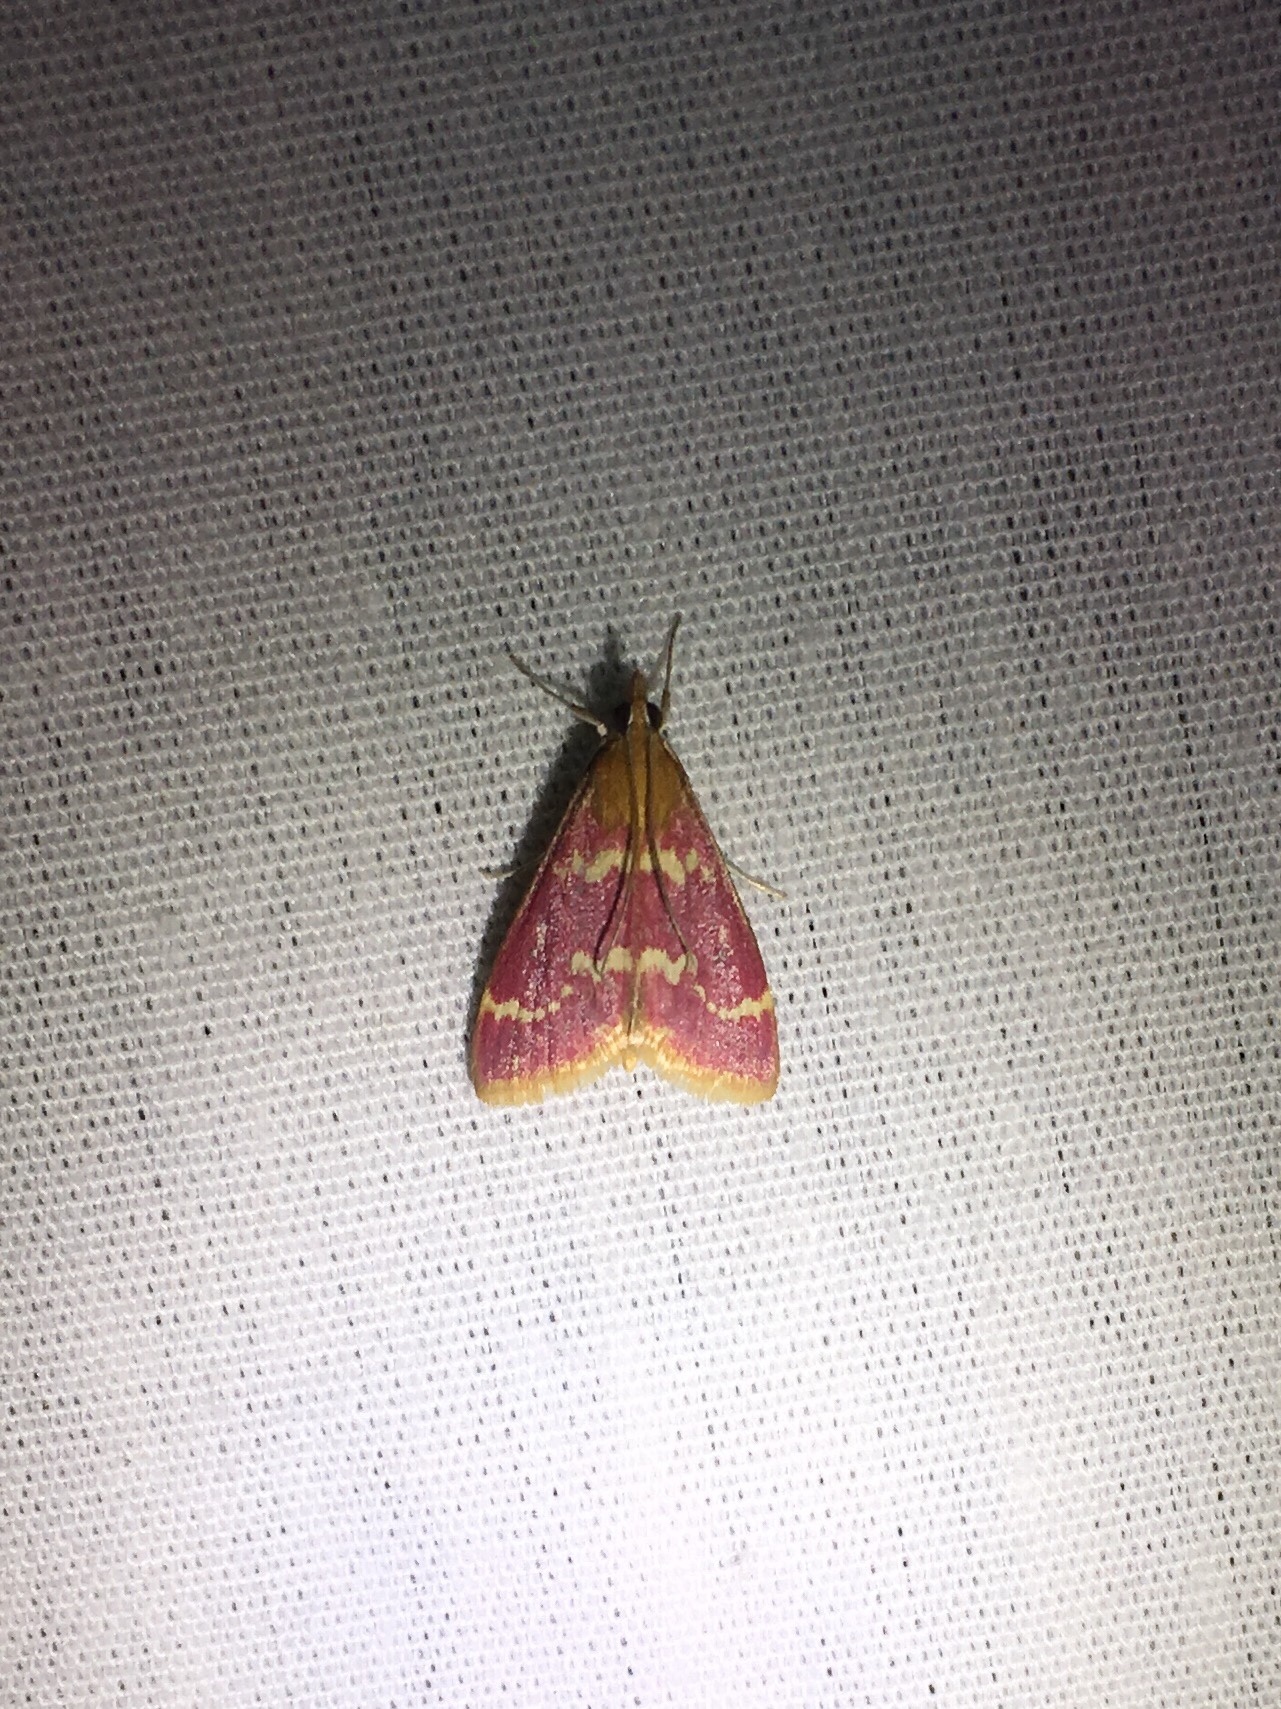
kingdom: Animalia
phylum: Arthropoda
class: Insecta
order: Lepidoptera
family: Crambidae
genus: Pyrausta
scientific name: Pyrausta signatalis
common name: Raspberry pyrausta moth
